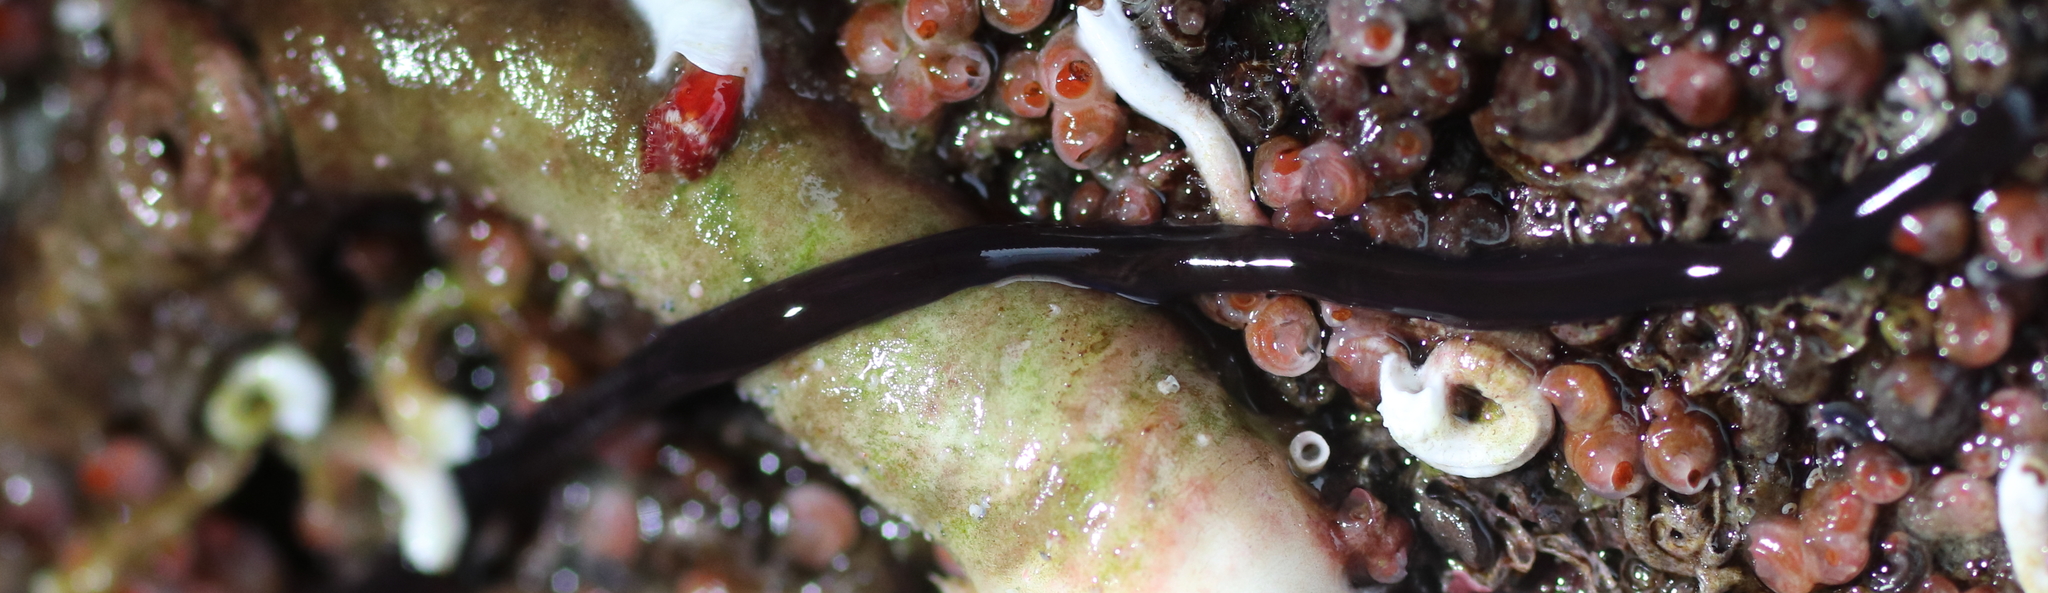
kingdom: Animalia
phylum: Nemertea
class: Hoplonemertea
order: Monostilifera
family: Neesiidae
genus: Paranemertes
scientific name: Paranemertes peregrina
